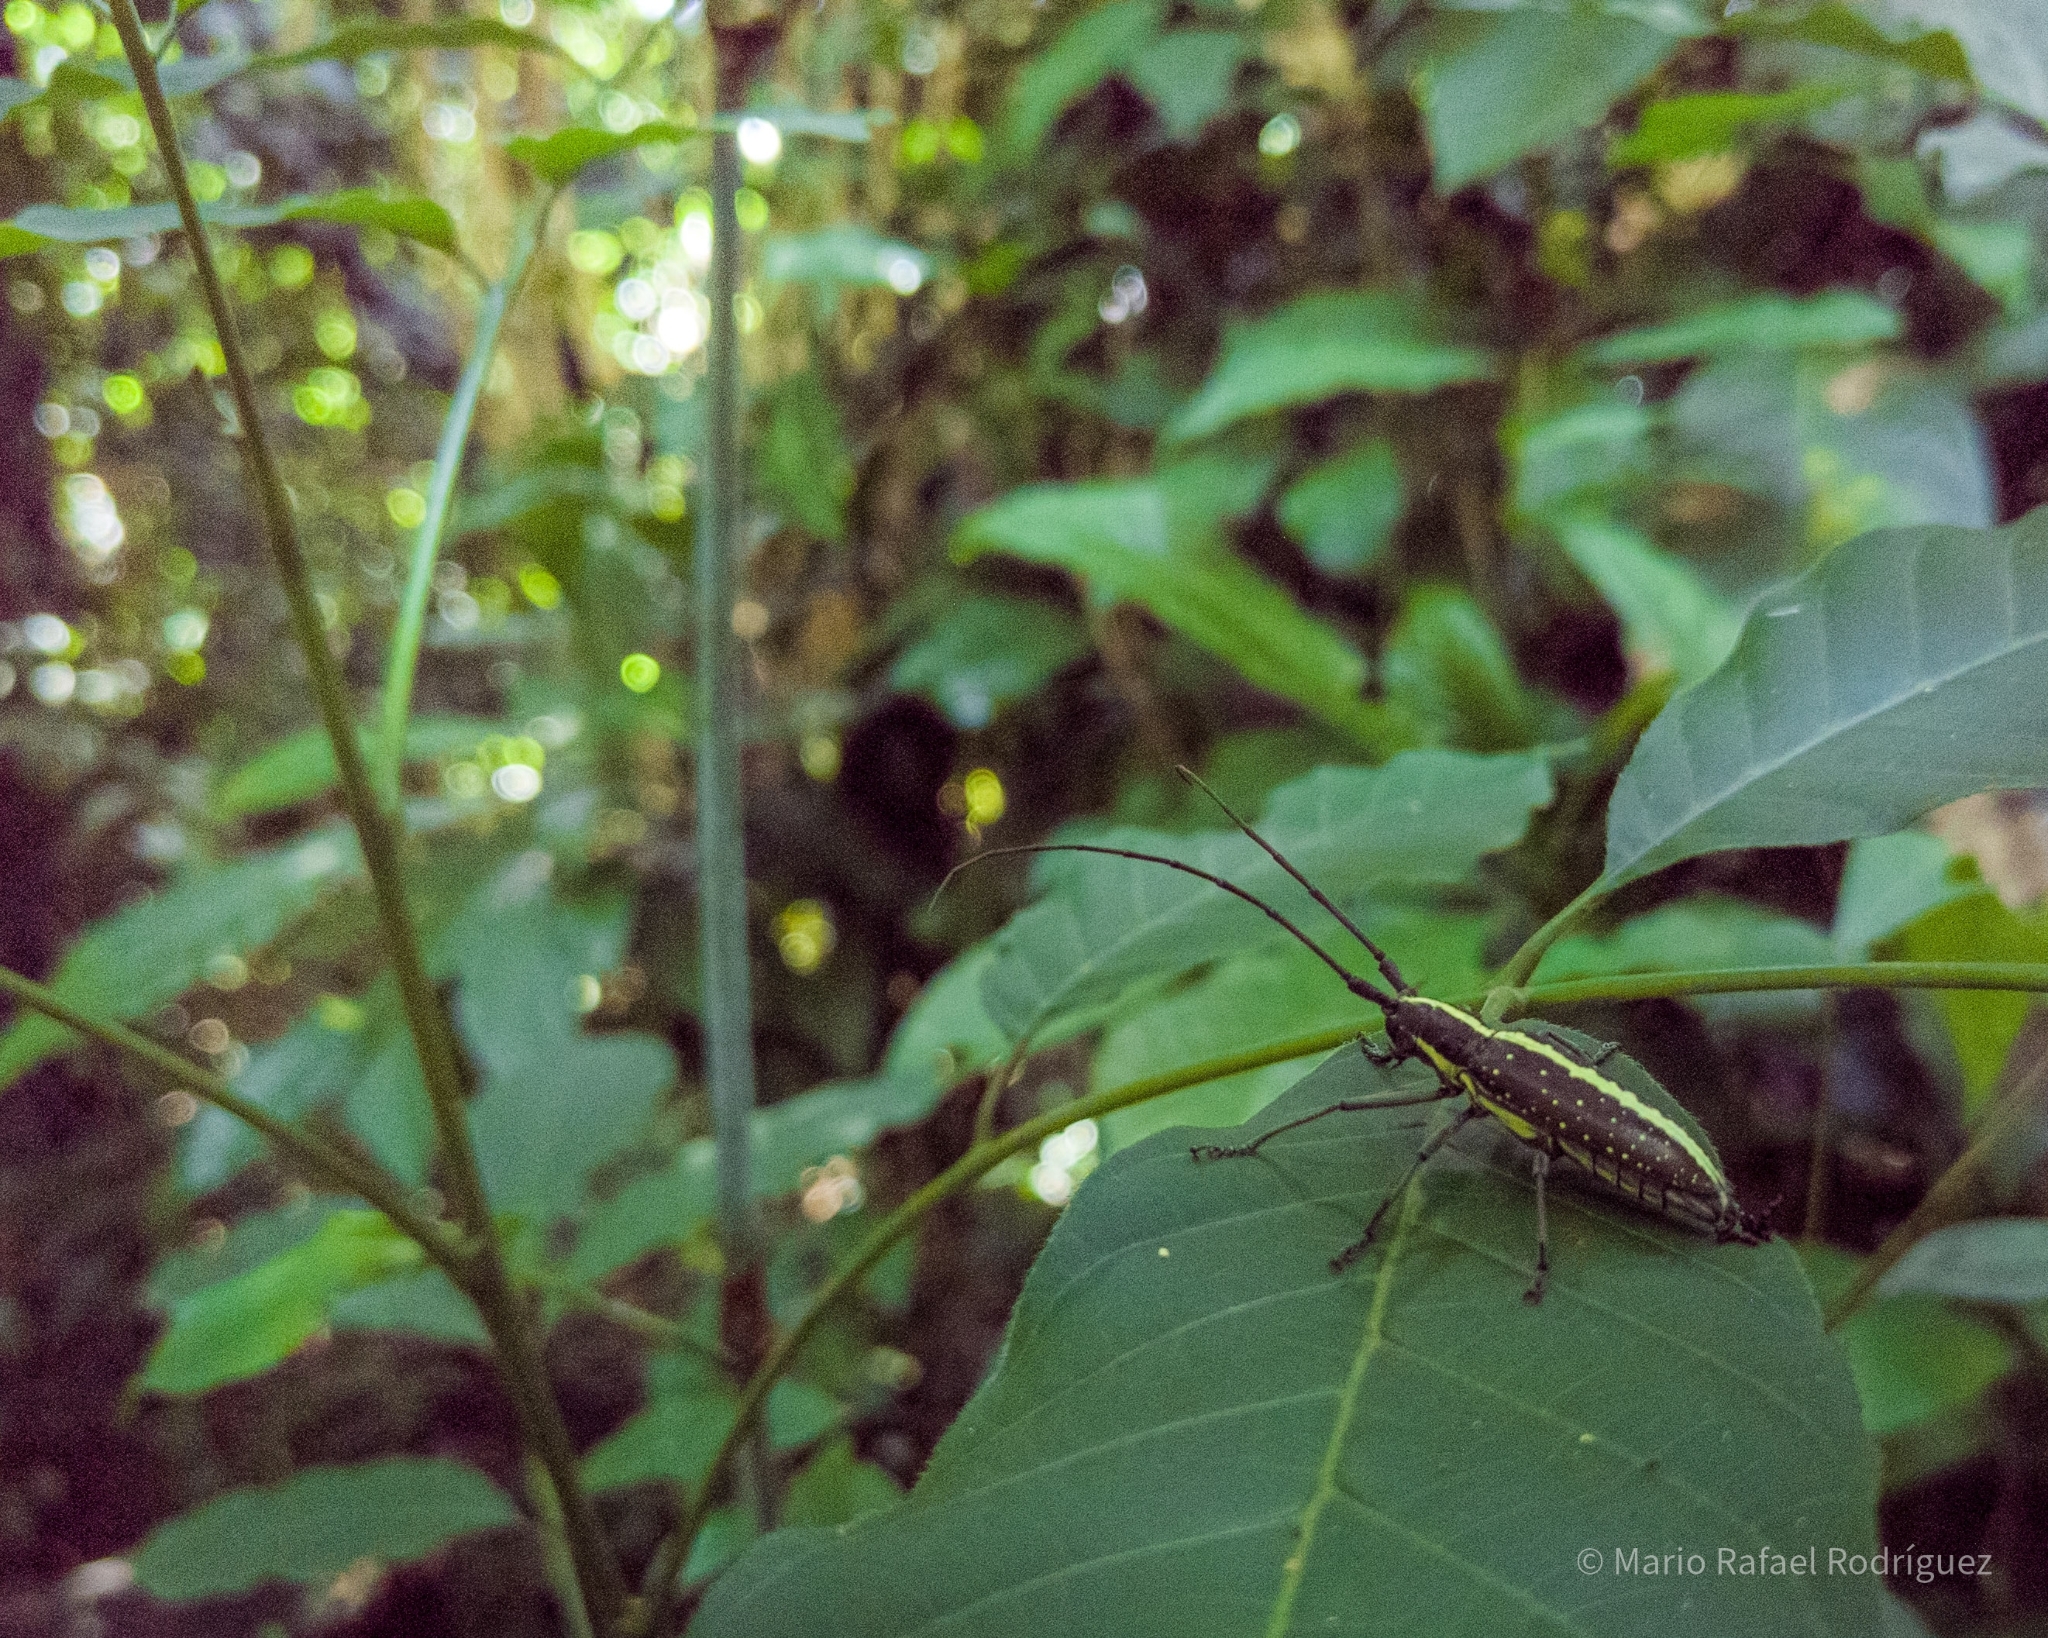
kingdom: Animalia
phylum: Arthropoda
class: Insecta
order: Coleoptera
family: Cerambycidae
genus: Taeniotes
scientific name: Taeniotes scalatus
